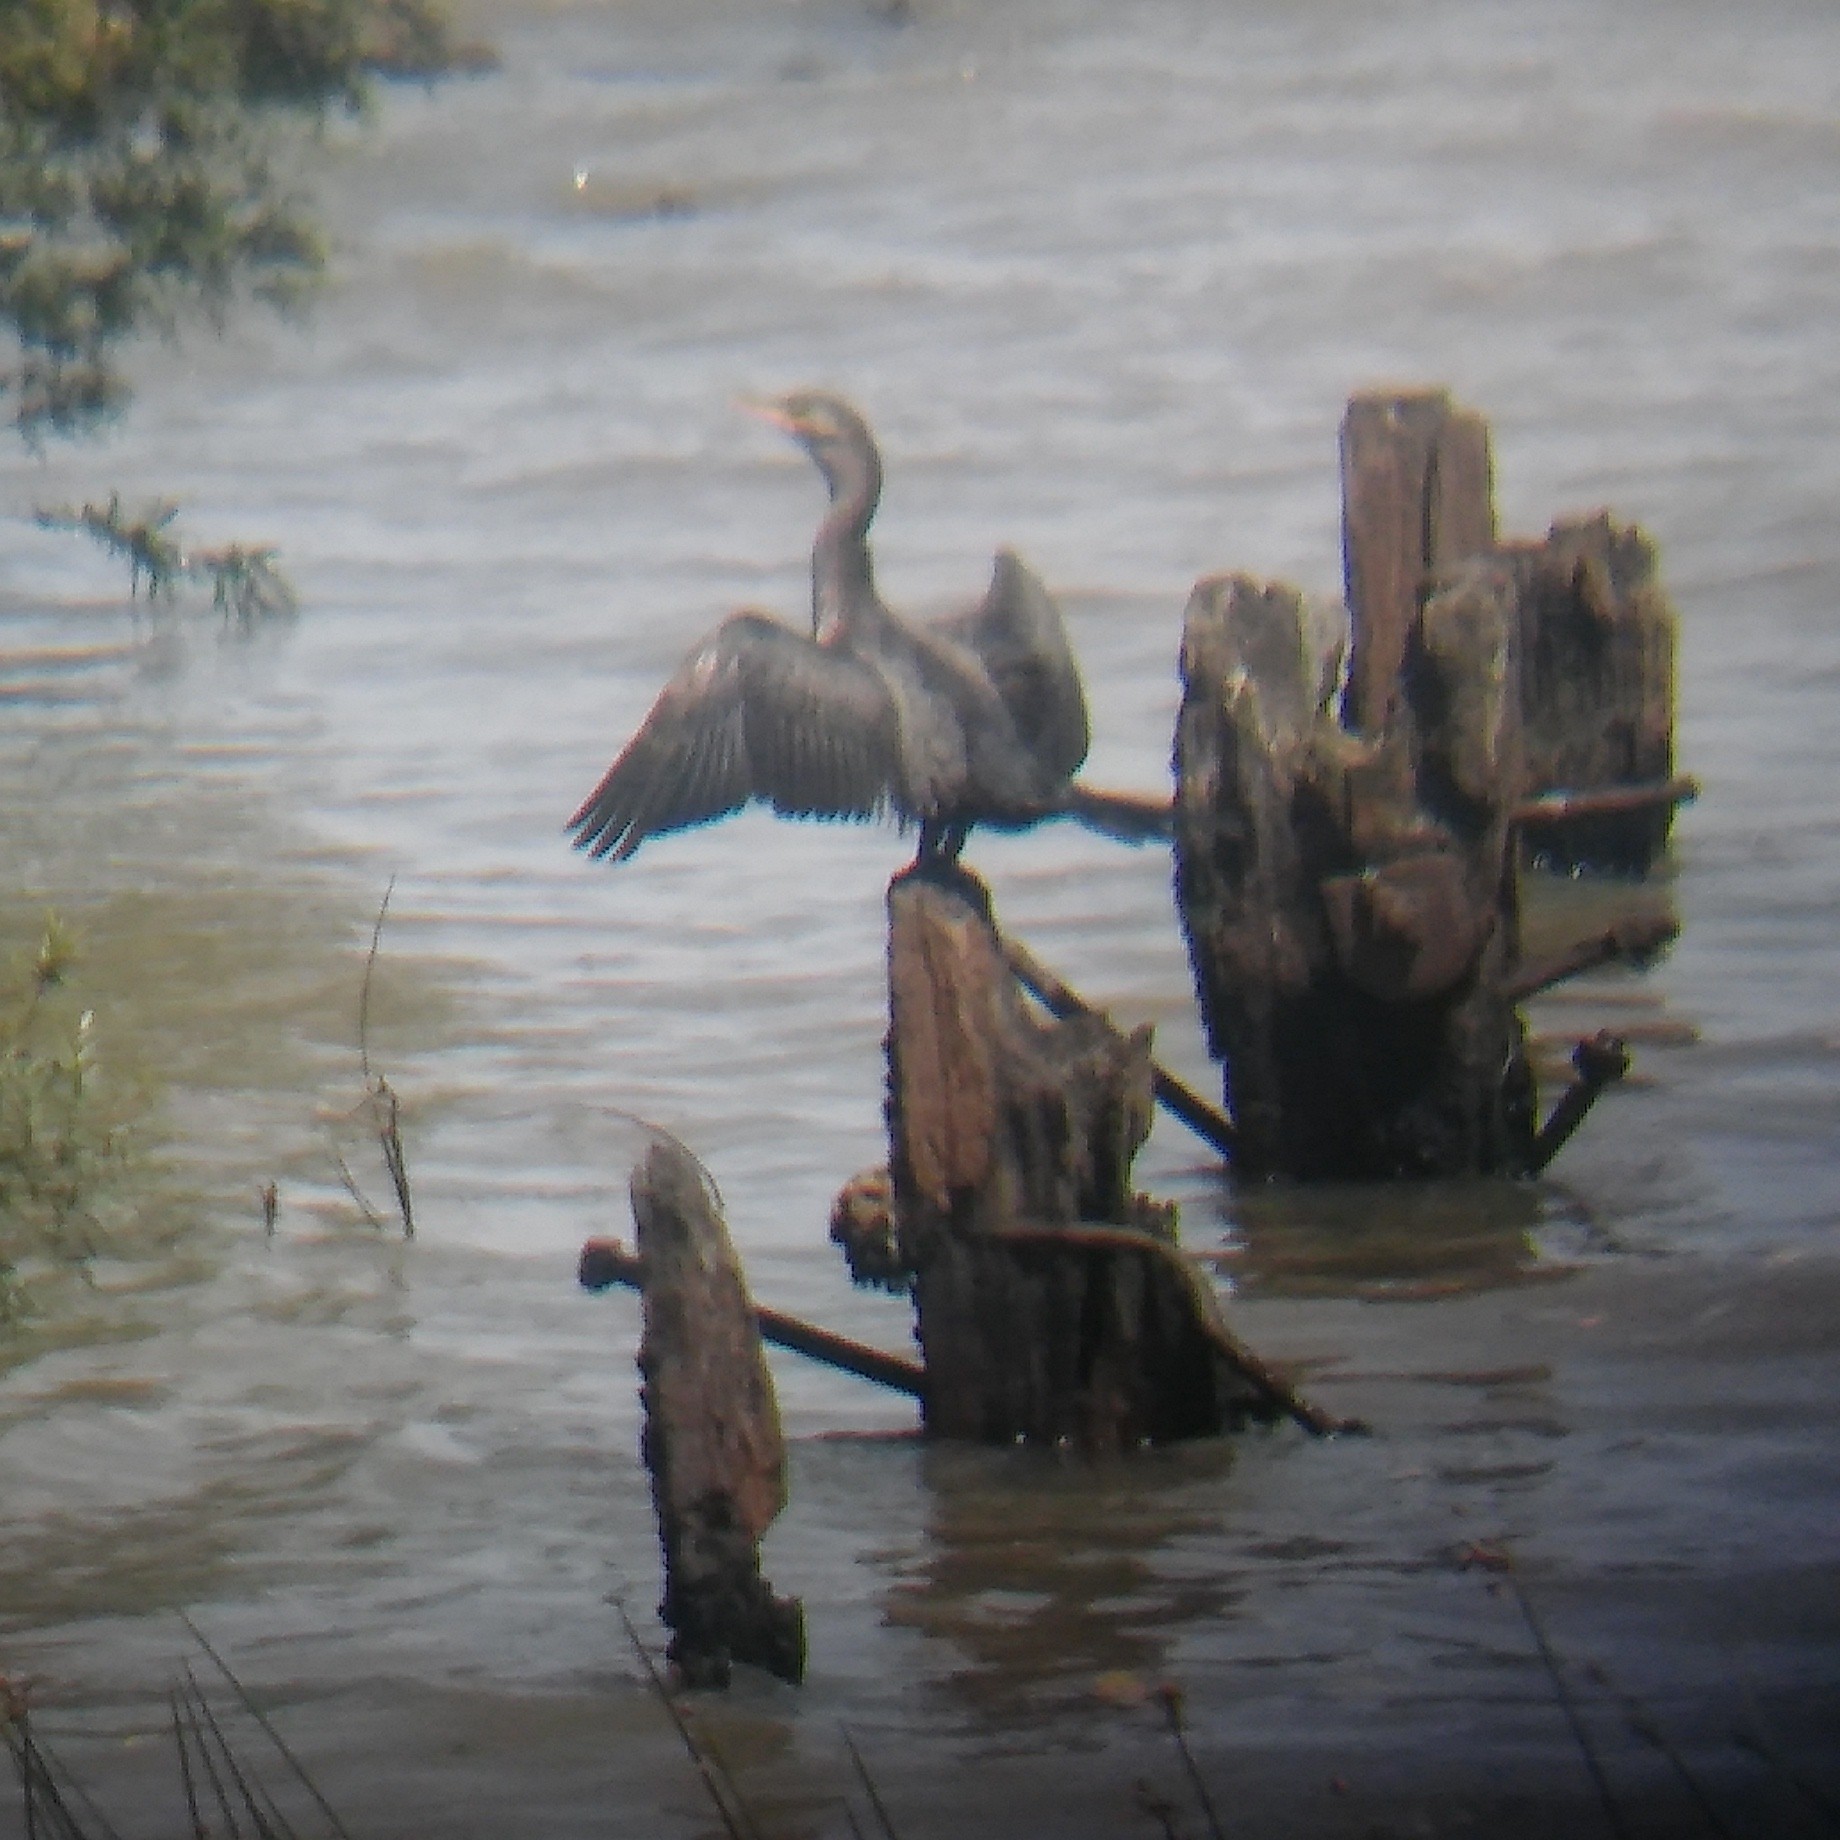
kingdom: Animalia
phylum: Chordata
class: Aves
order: Suliformes
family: Phalacrocoracidae
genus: Phalacrocorax
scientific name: Phalacrocorax brasilianus
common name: Neotropic cormorant
